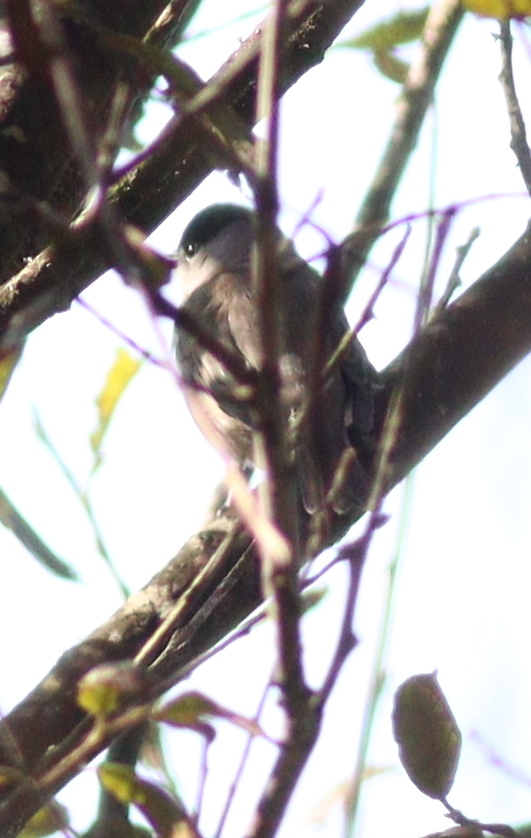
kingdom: Animalia
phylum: Chordata
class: Aves
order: Passeriformes
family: Sylviidae
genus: Sylvia
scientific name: Sylvia atricapilla
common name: Eurasian blackcap
